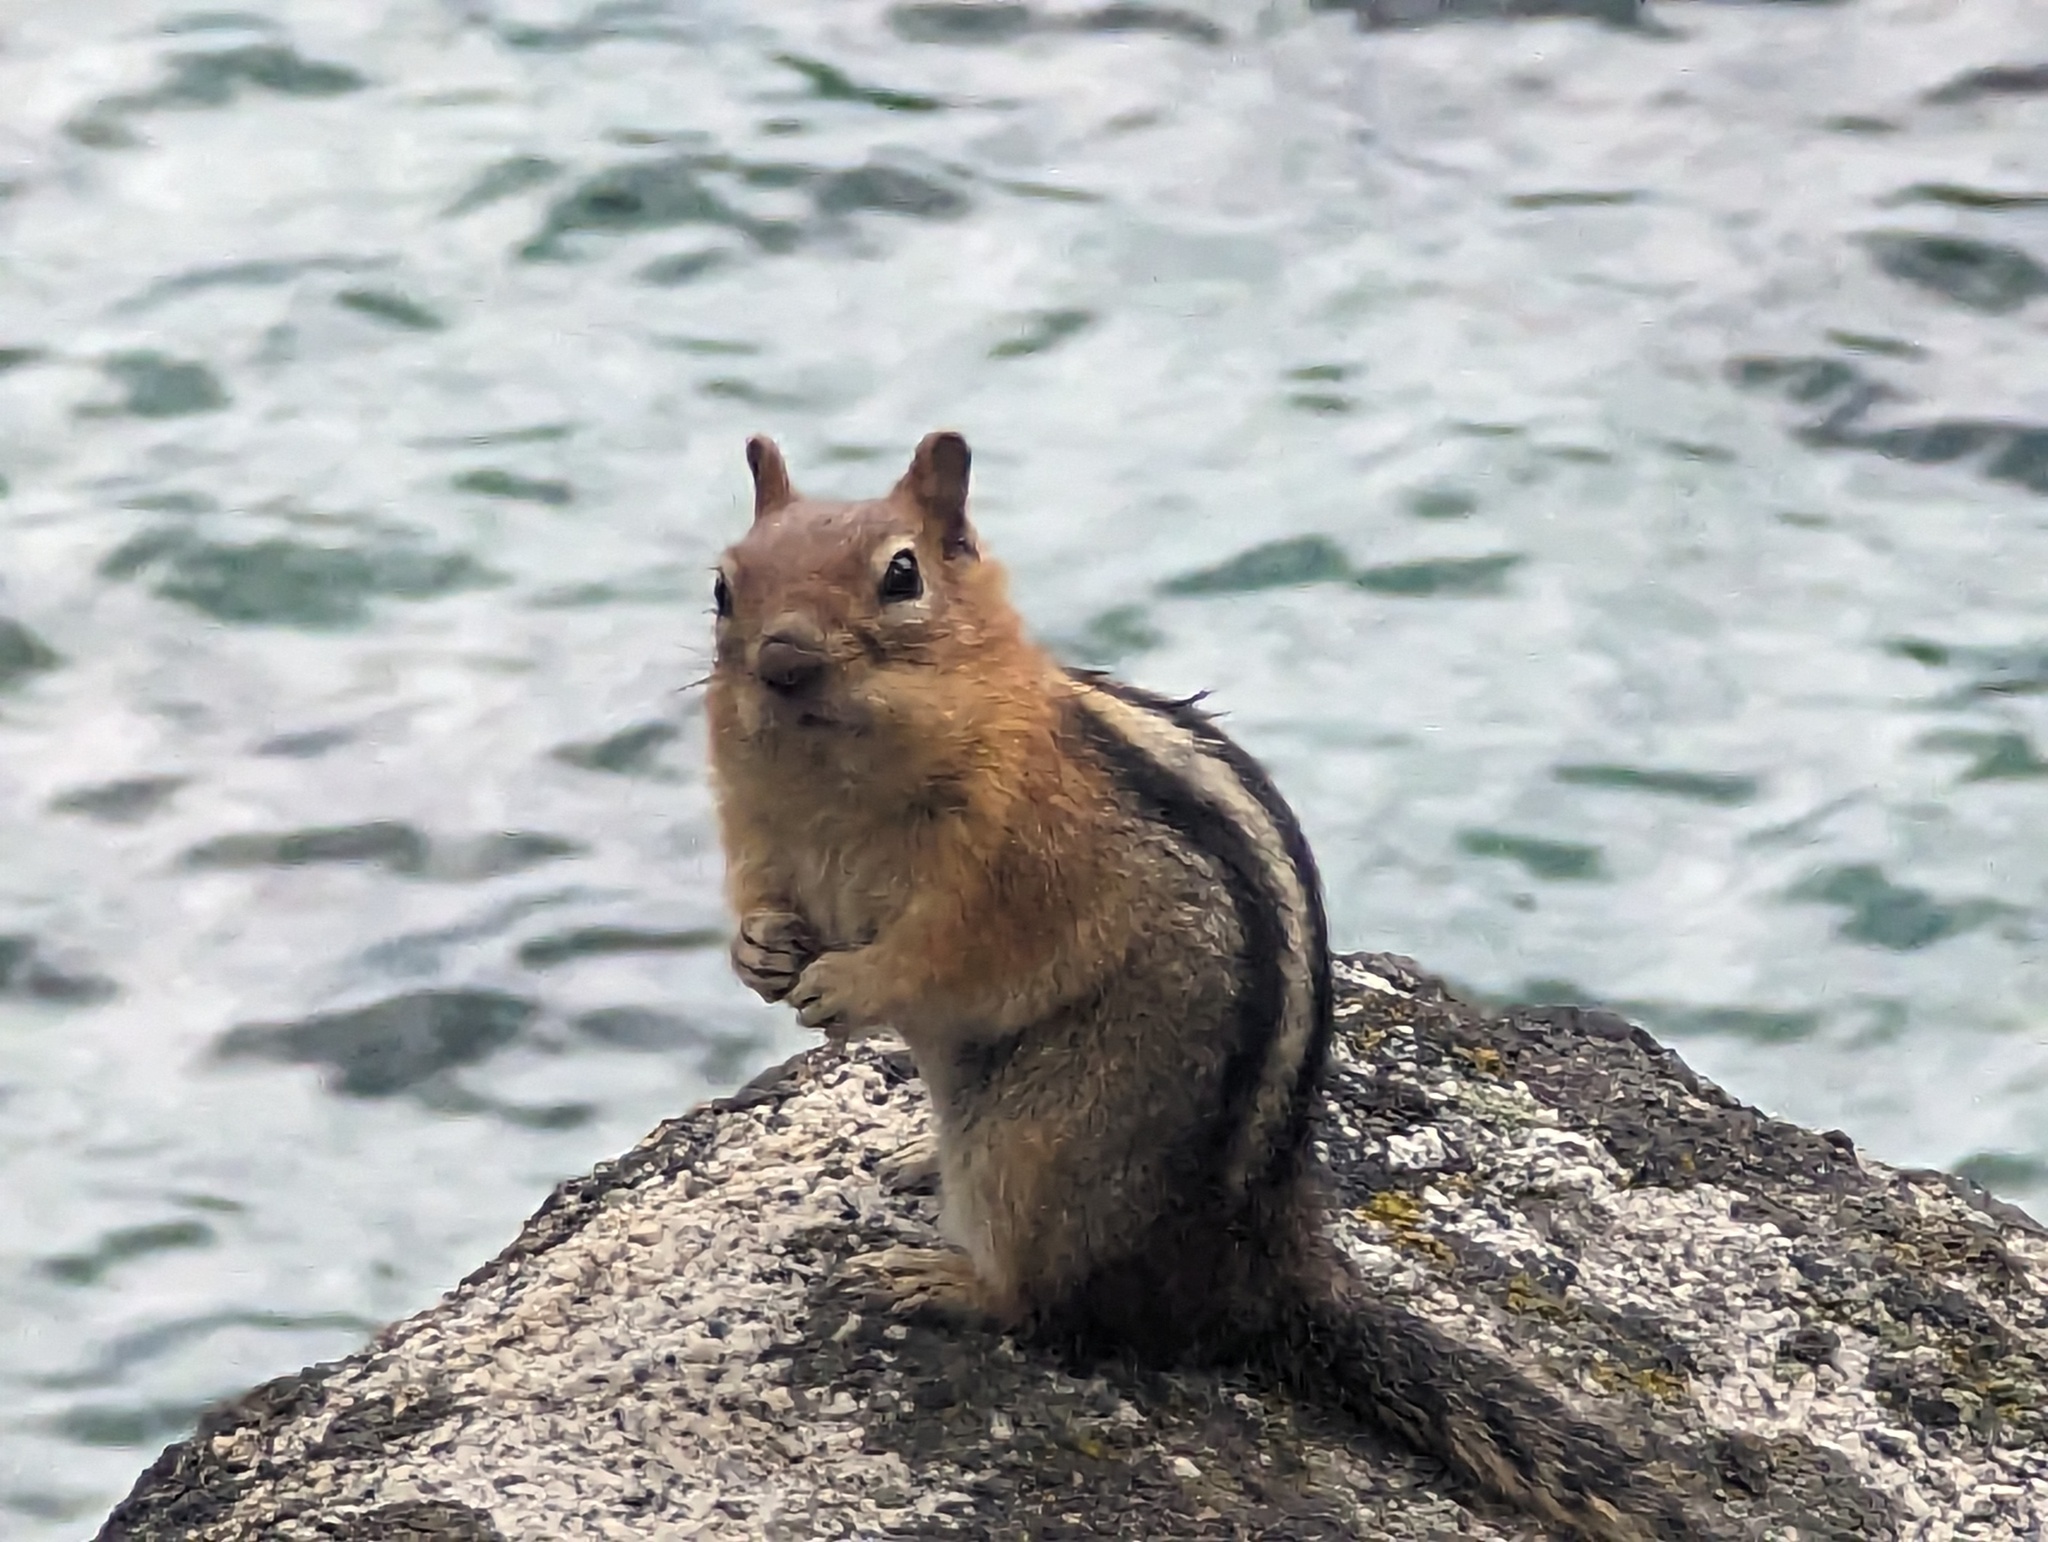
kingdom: Animalia
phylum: Chordata
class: Mammalia
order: Rodentia
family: Sciuridae
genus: Callospermophilus
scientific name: Callospermophilus lateralis
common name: Golden-mantled ground squirrel
